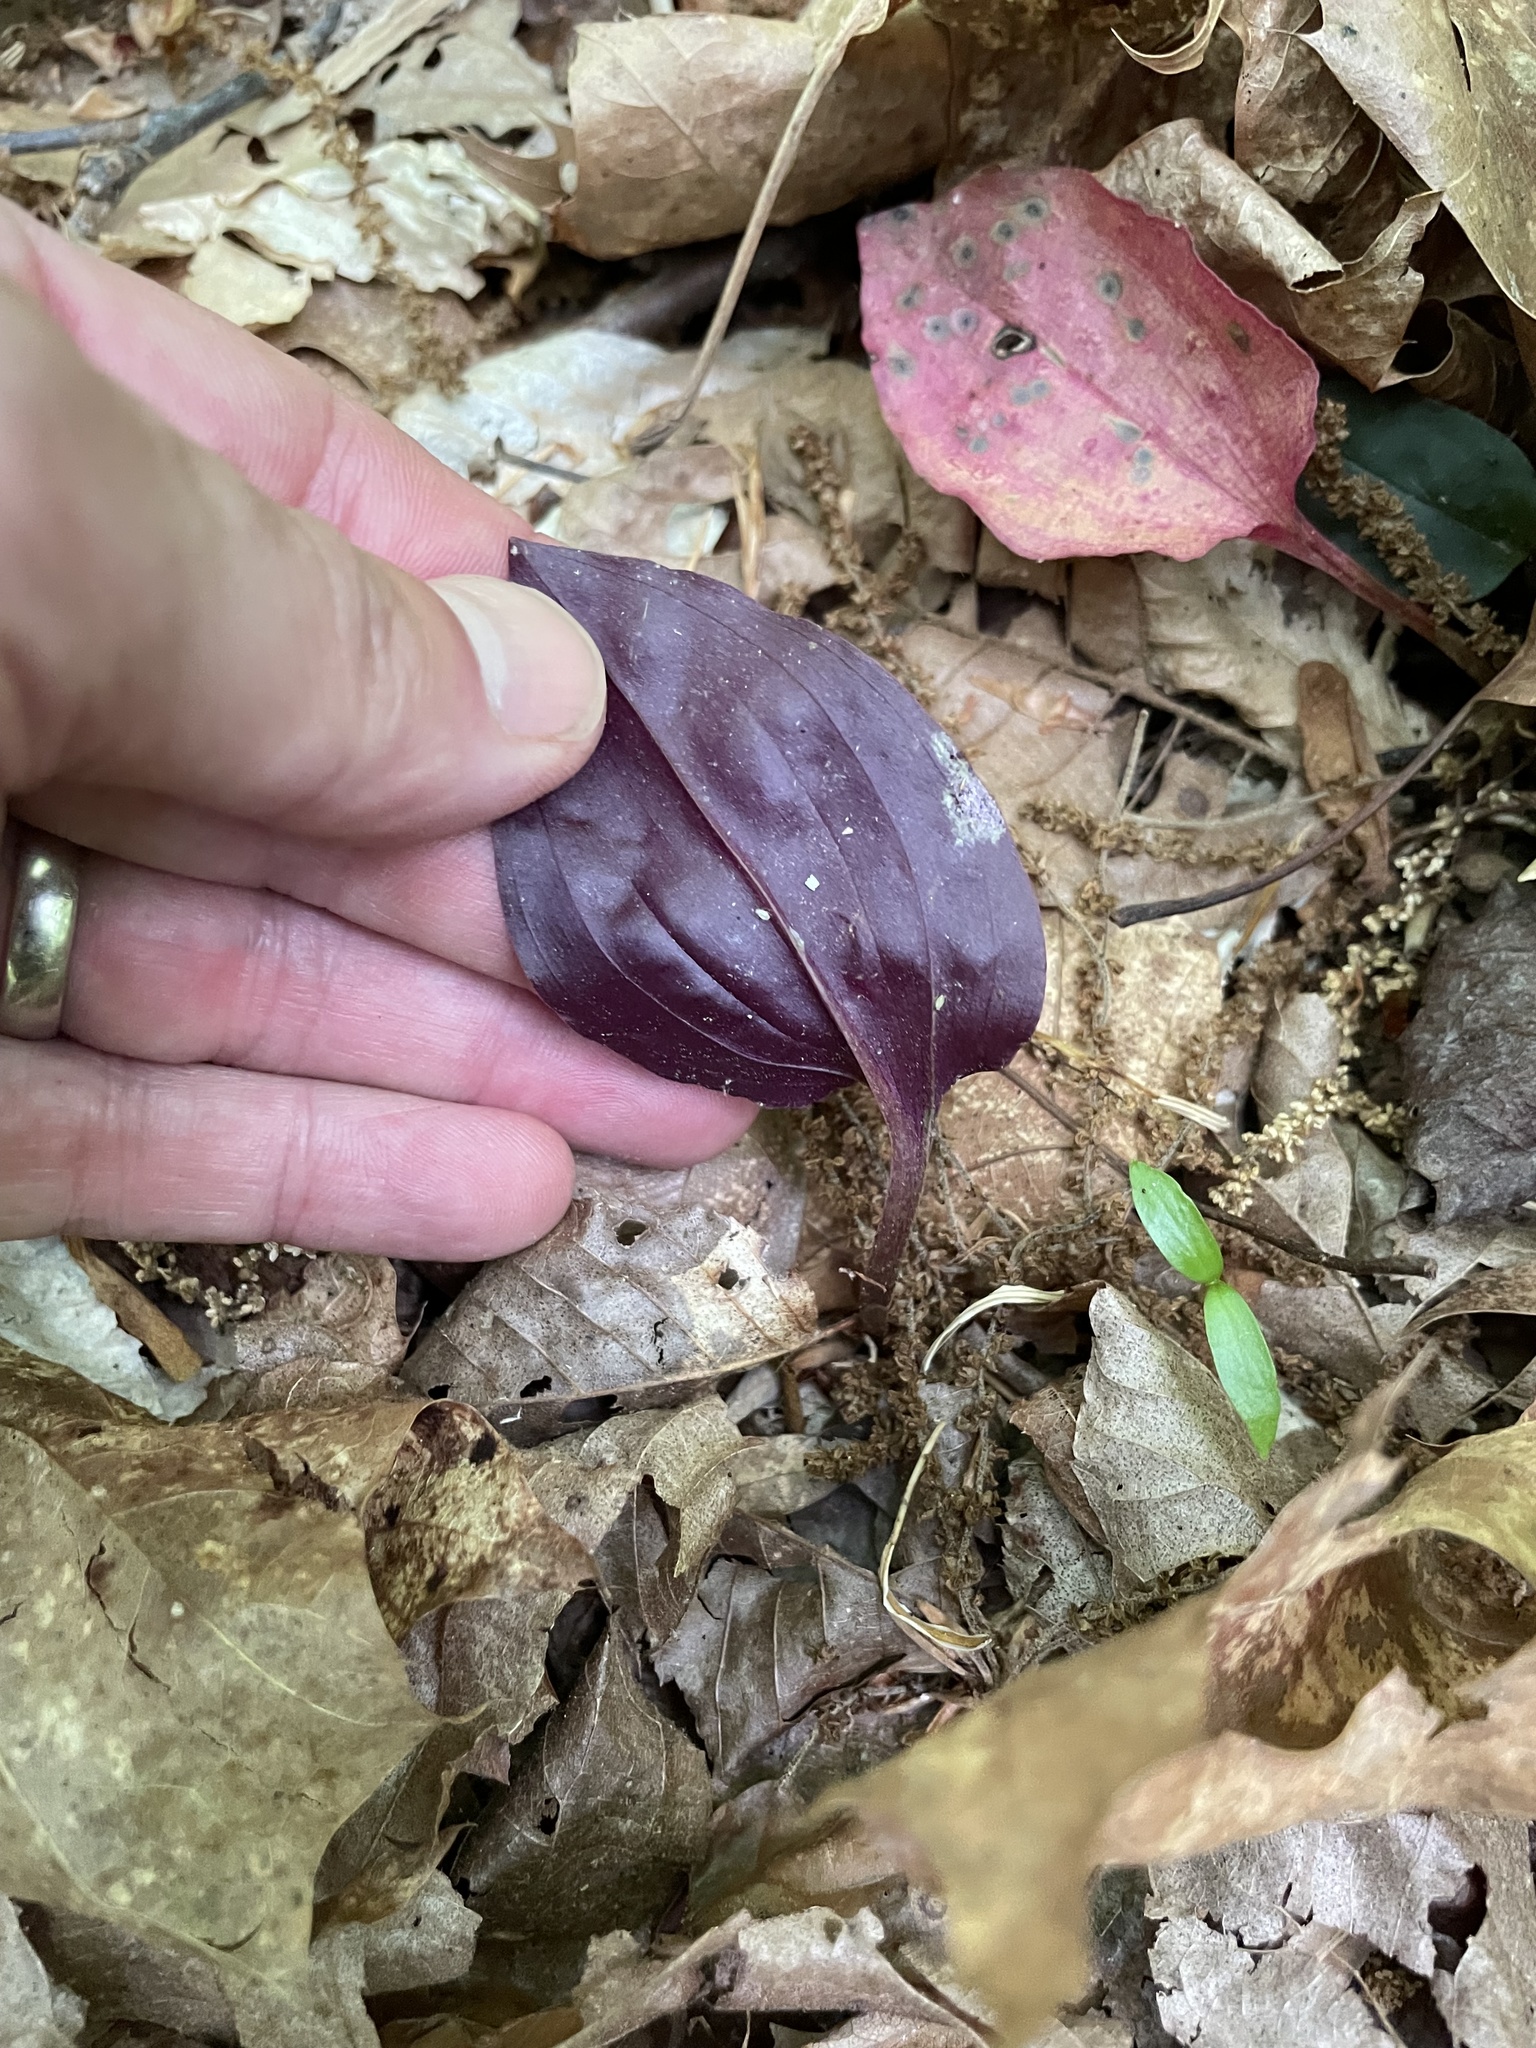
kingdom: Plantae
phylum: Tracheophyta
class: Liliopsida
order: Asparagales
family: Orchidaceae
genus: Tipularia
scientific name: Tipularia discolor
